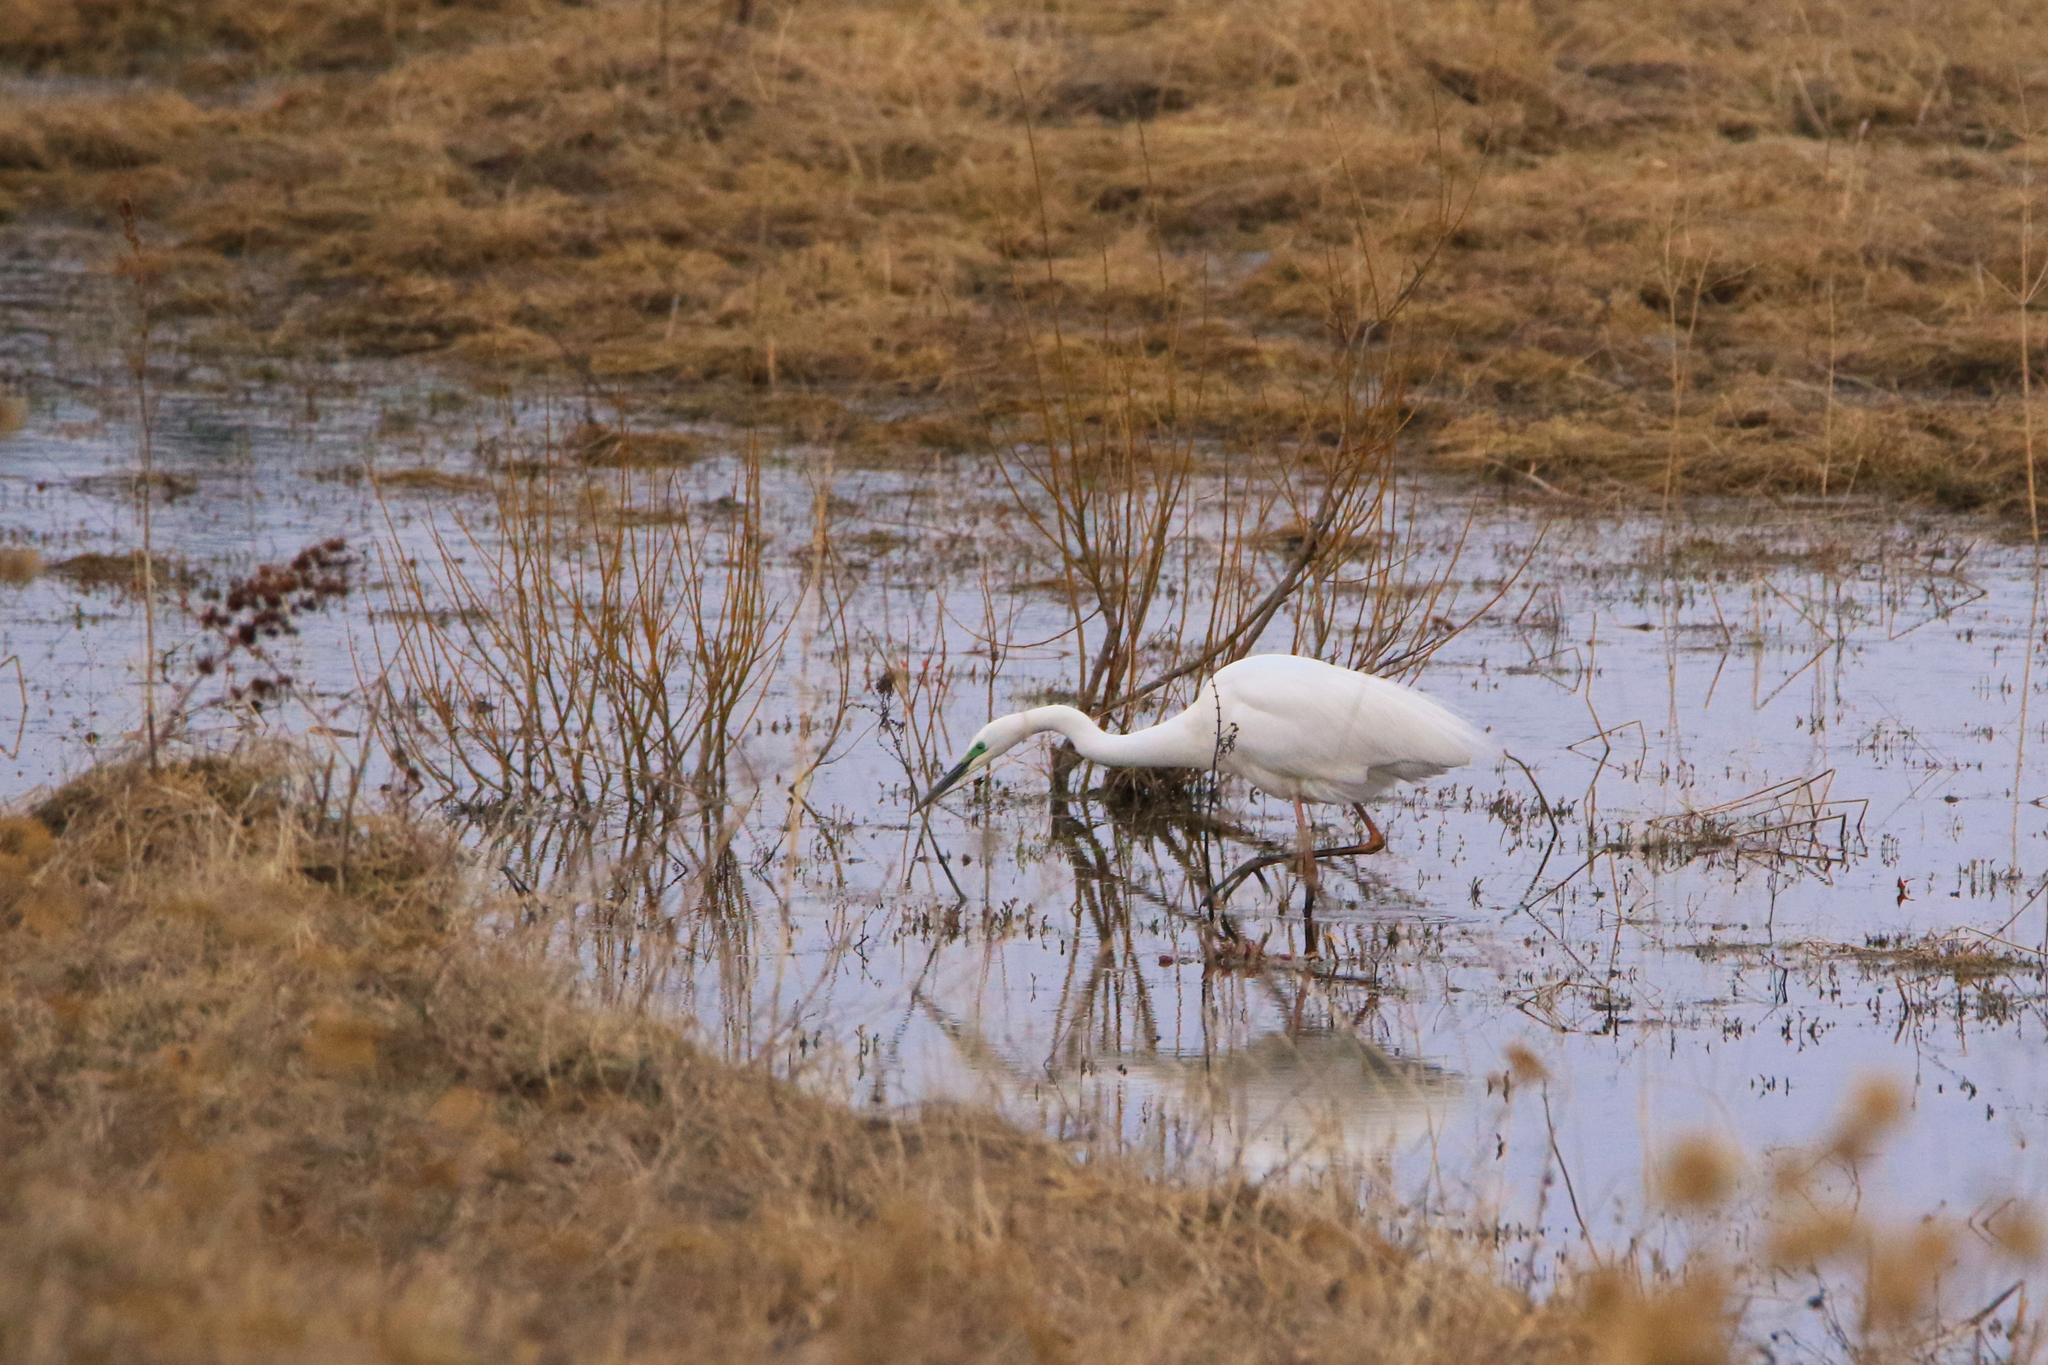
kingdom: Animalia
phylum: Chordata
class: Aves
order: Pelecaniformes
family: Ardeidae
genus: Ardea
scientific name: Ardea alba
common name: Great egret
